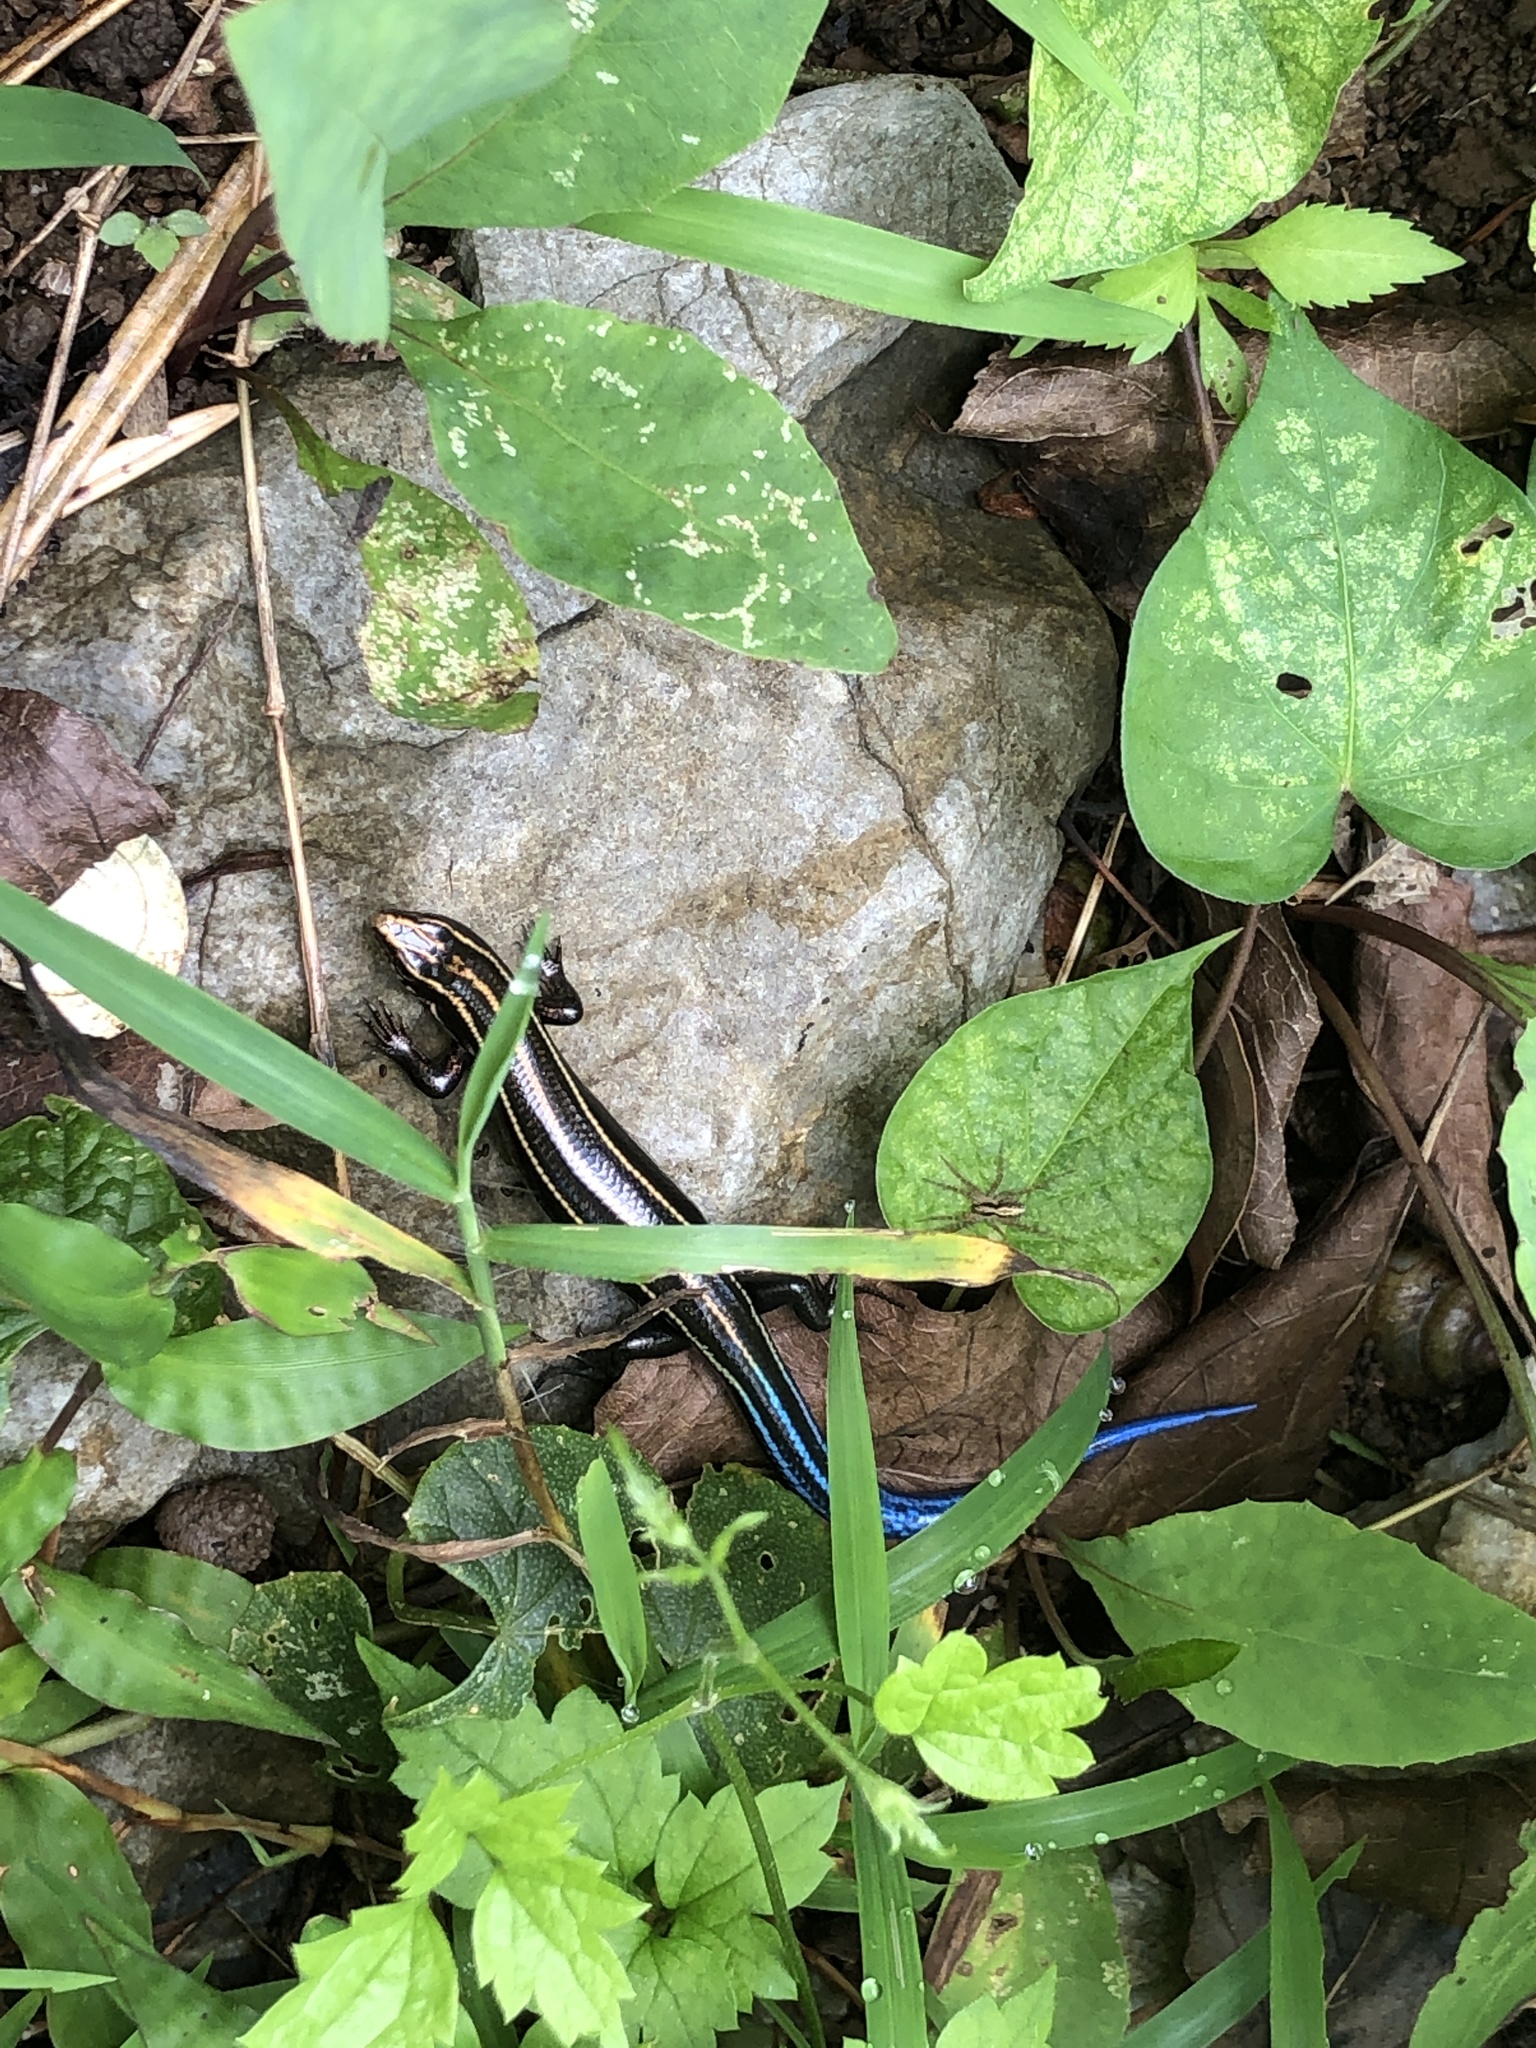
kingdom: Animalia
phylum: Chordata
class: Squamata
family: Scincidae
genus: Plestiodon
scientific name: Plestiodon barbouri
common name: Barbour's eyelid skink
